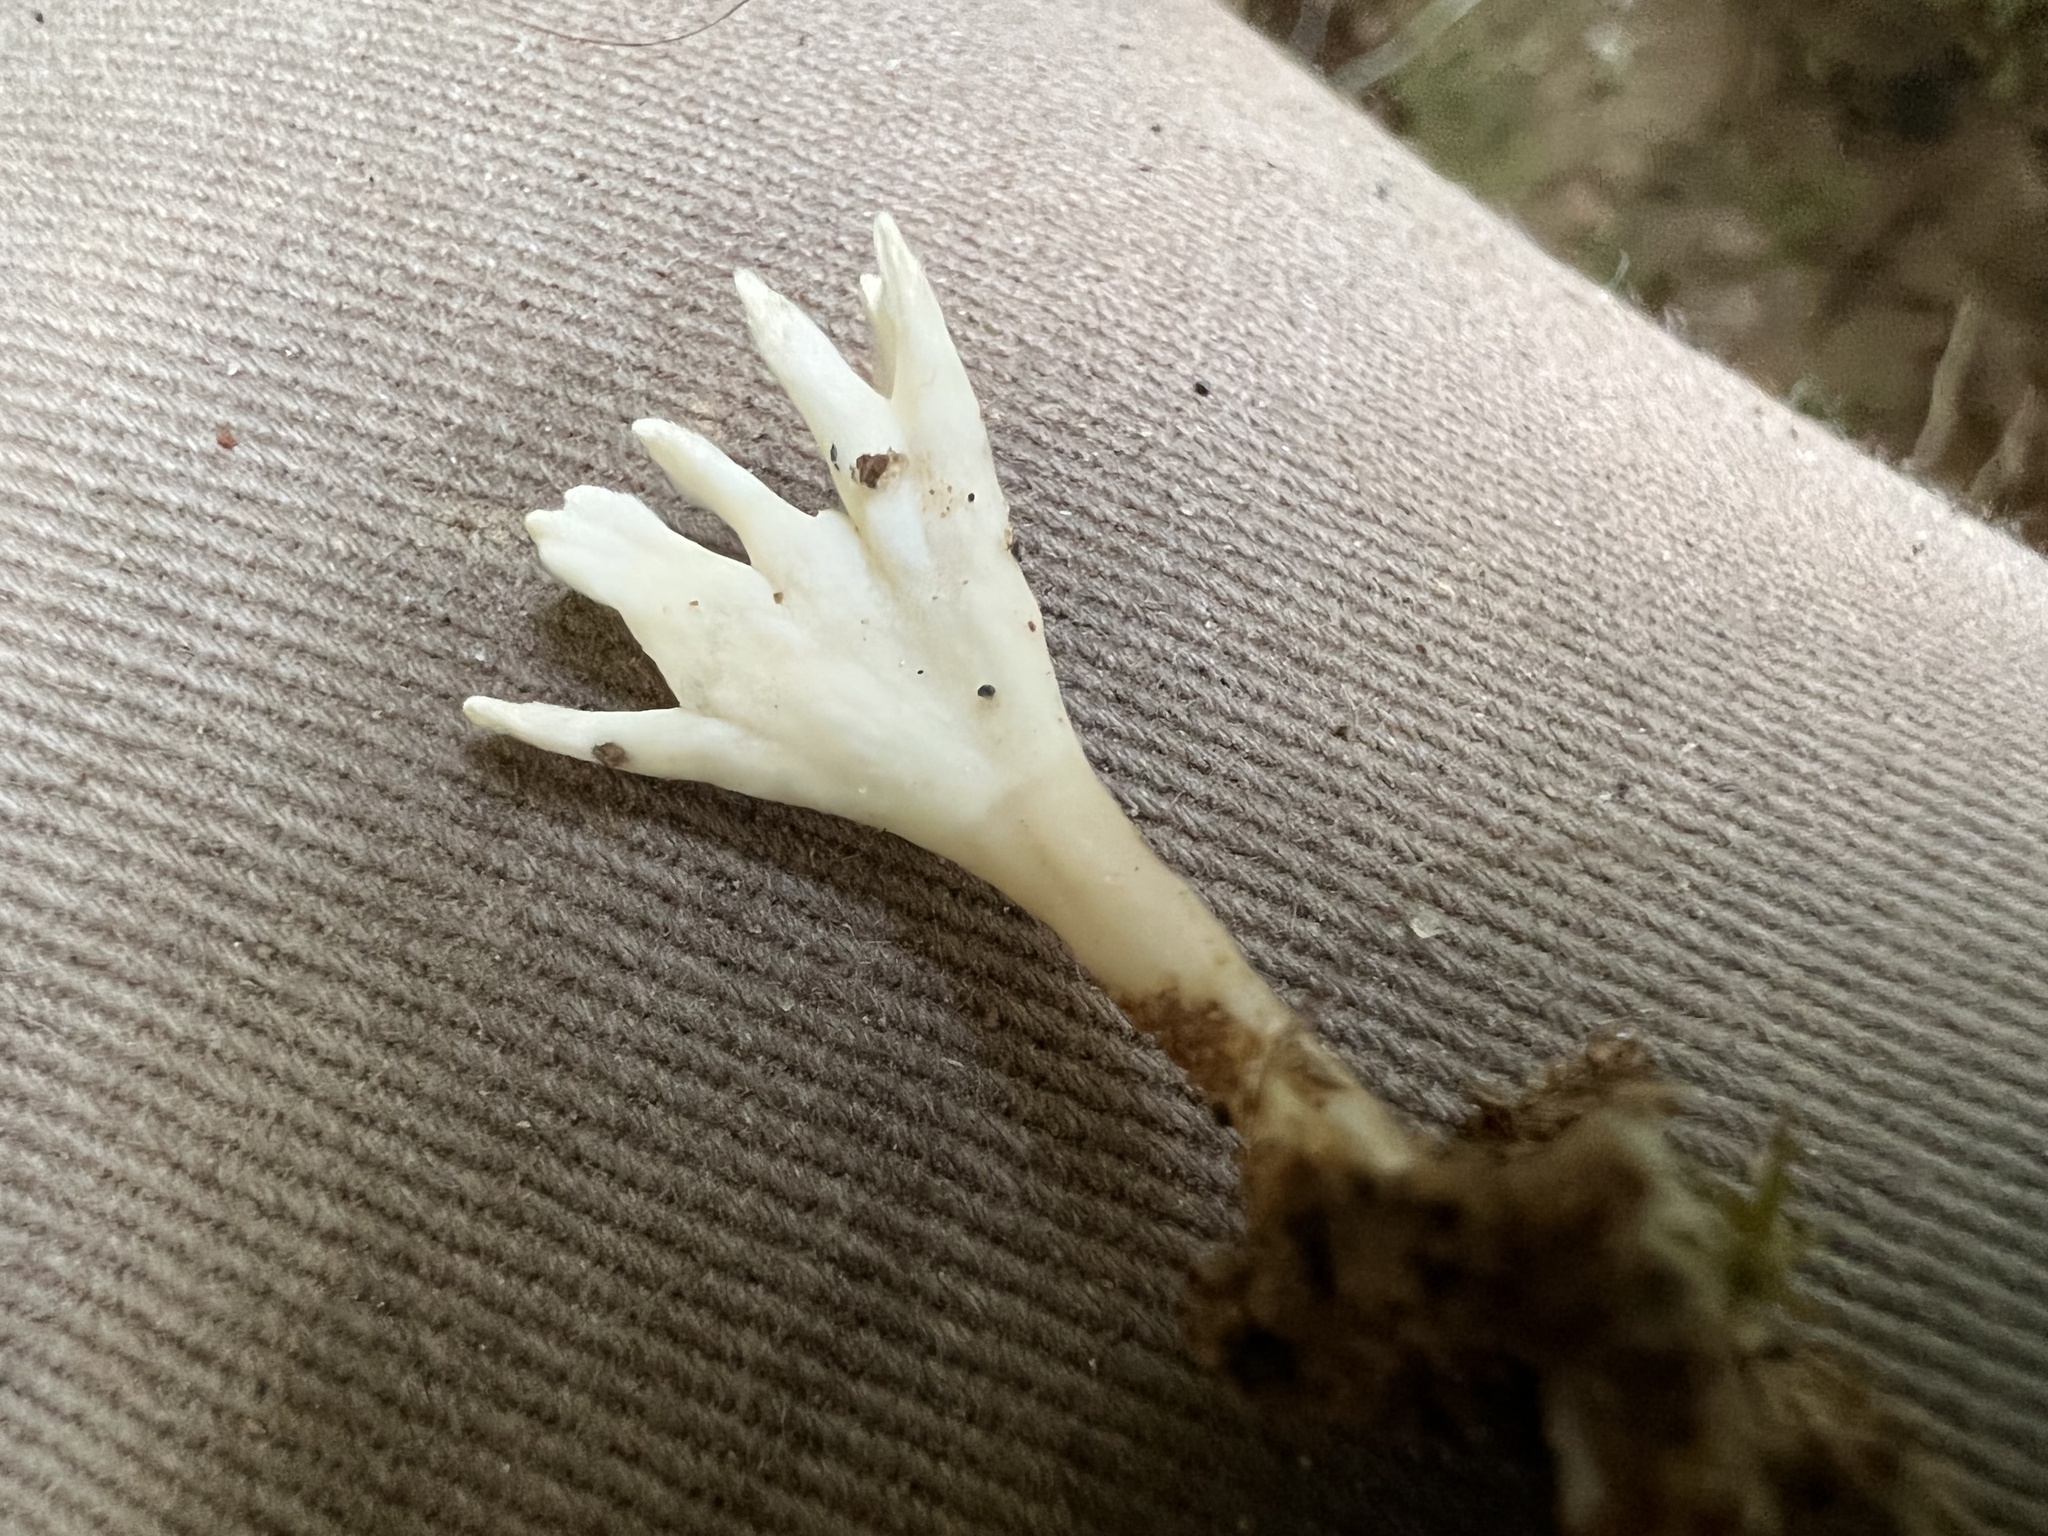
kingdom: Fungi
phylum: Basidiomycota
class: Agaricomycetes
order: Tremellodendropsidales
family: Tremellodendropsidaceae
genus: Tremellodendropsis
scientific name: Tremellodendropsis tuberosa
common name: Ashen coral
